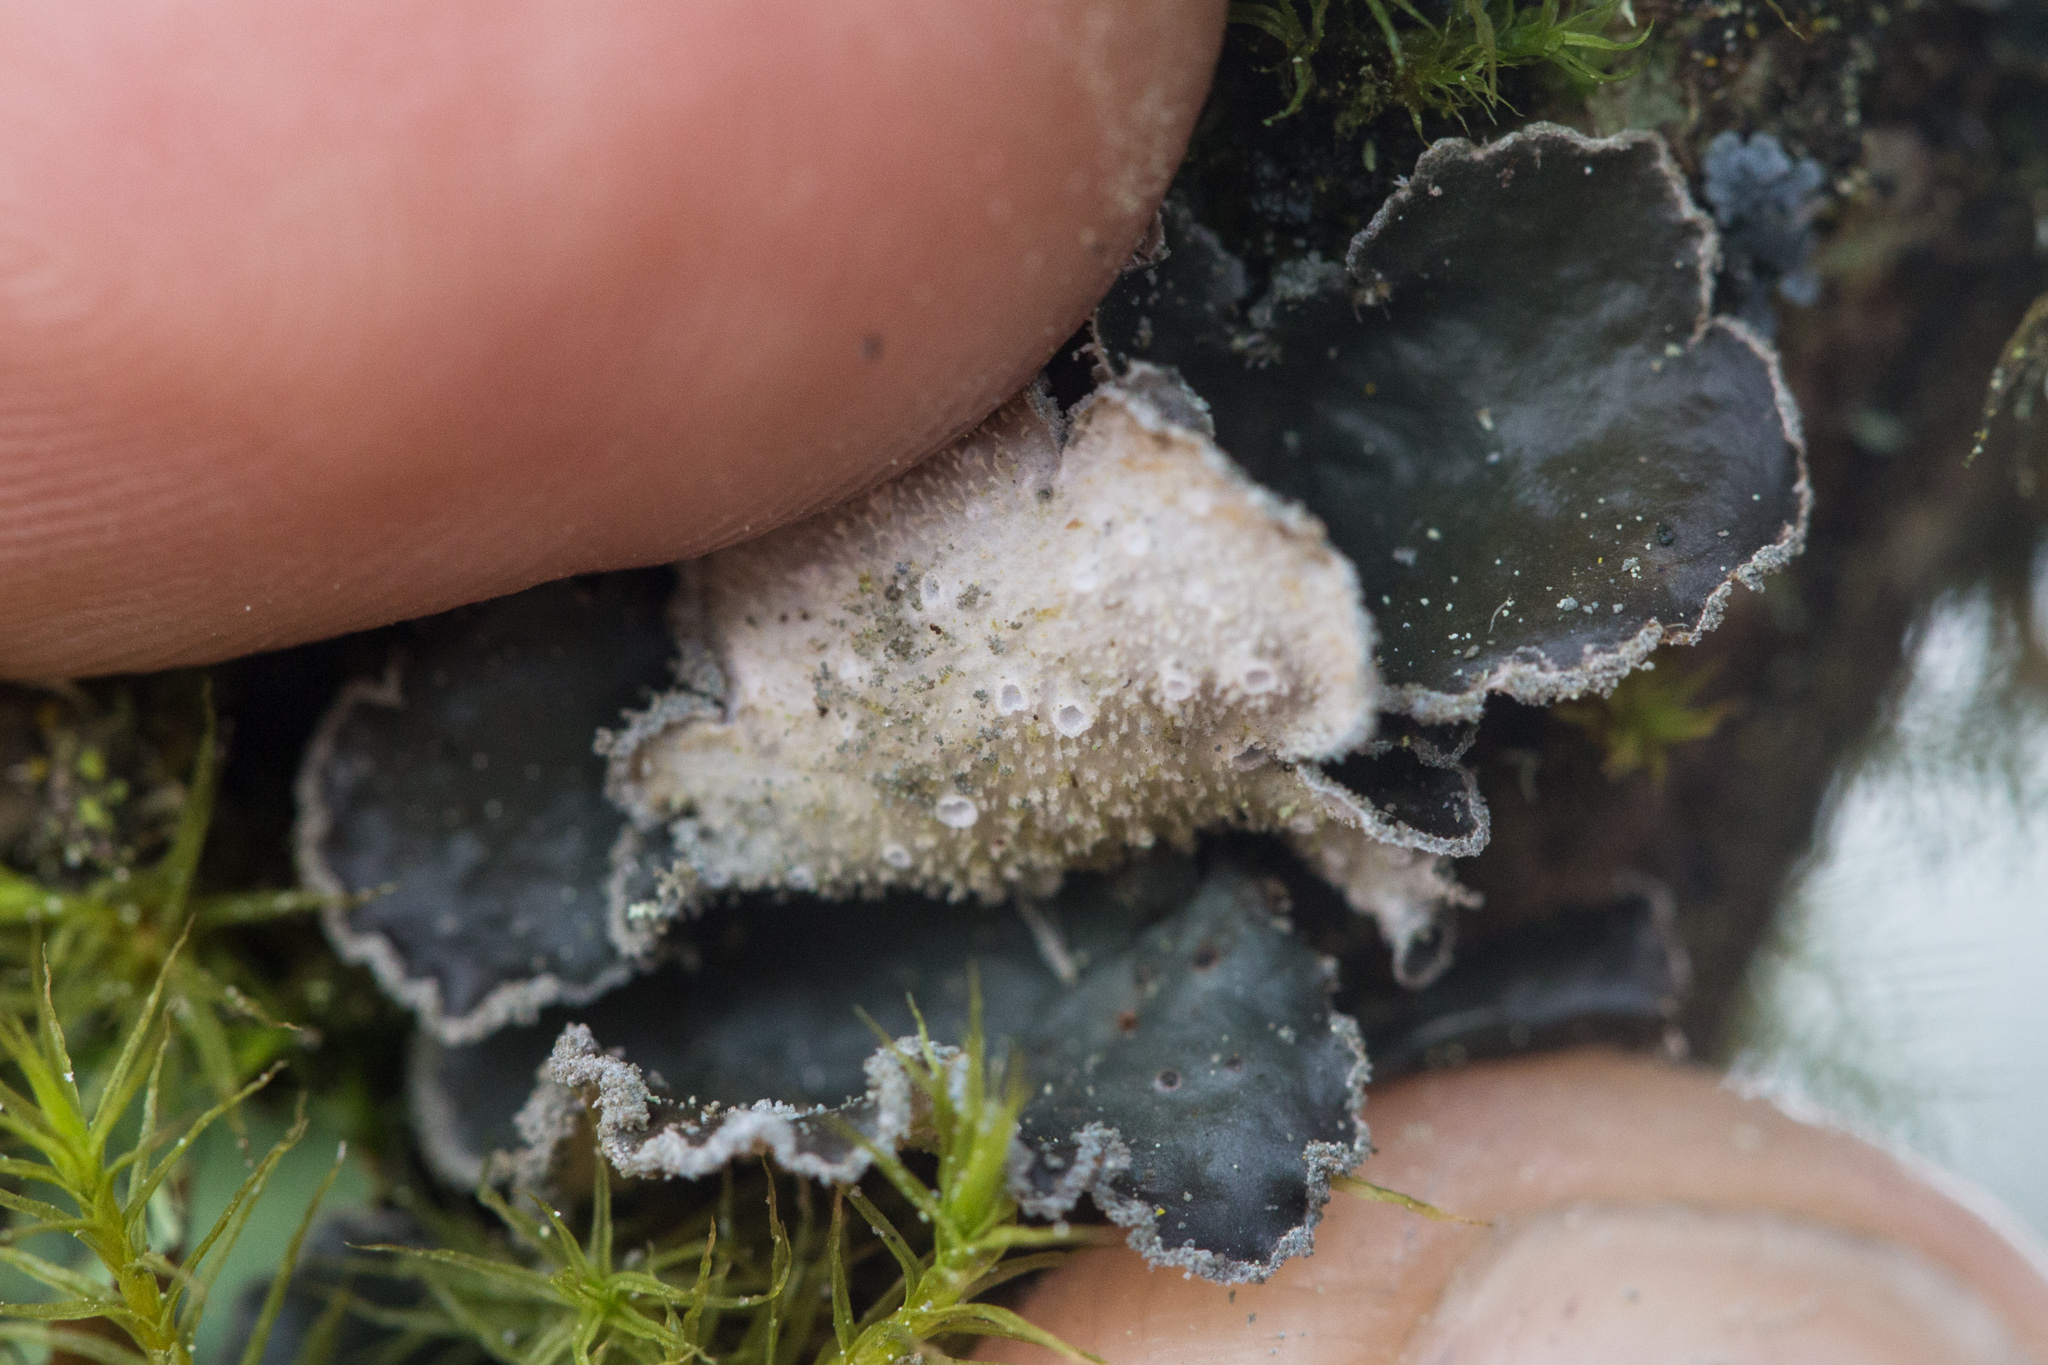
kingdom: Fungi
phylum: Ascomycota
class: Lecanoromycetes
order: Peltigerales
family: Lobariaceae
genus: Sticta
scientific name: Sticta limbata
